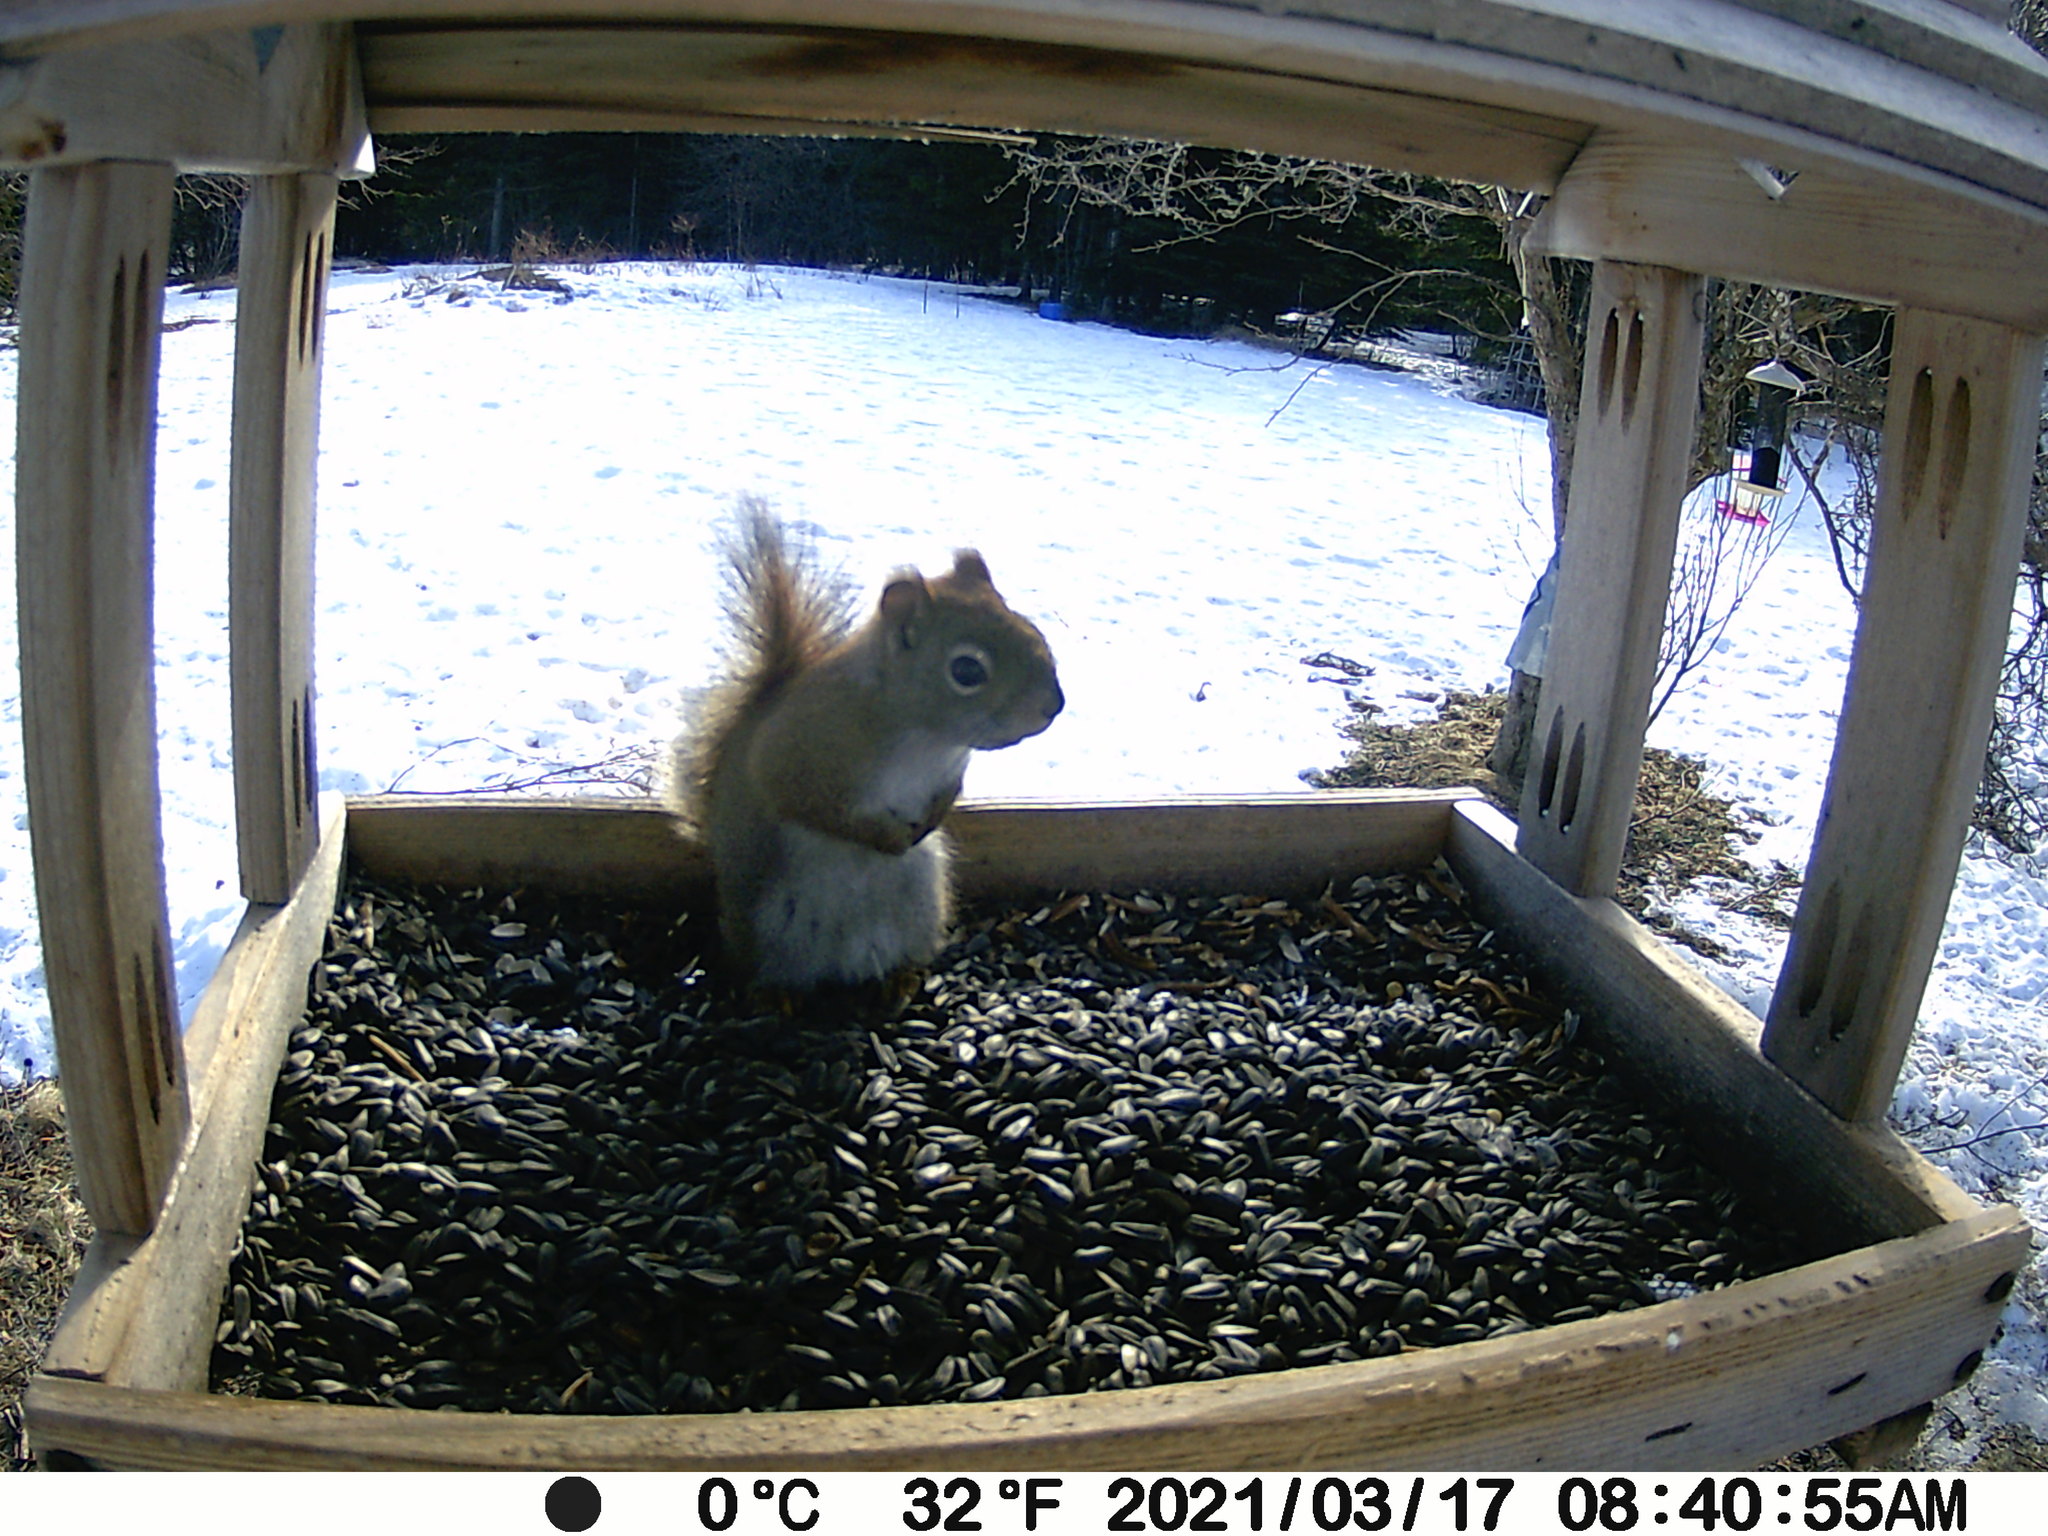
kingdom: Animalia
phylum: Chordata
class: Mammalia
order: Rodentia
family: Sciuridae
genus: Tamiasciurus
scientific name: Tamiasciurus hudsonicus
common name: Red squirrel
